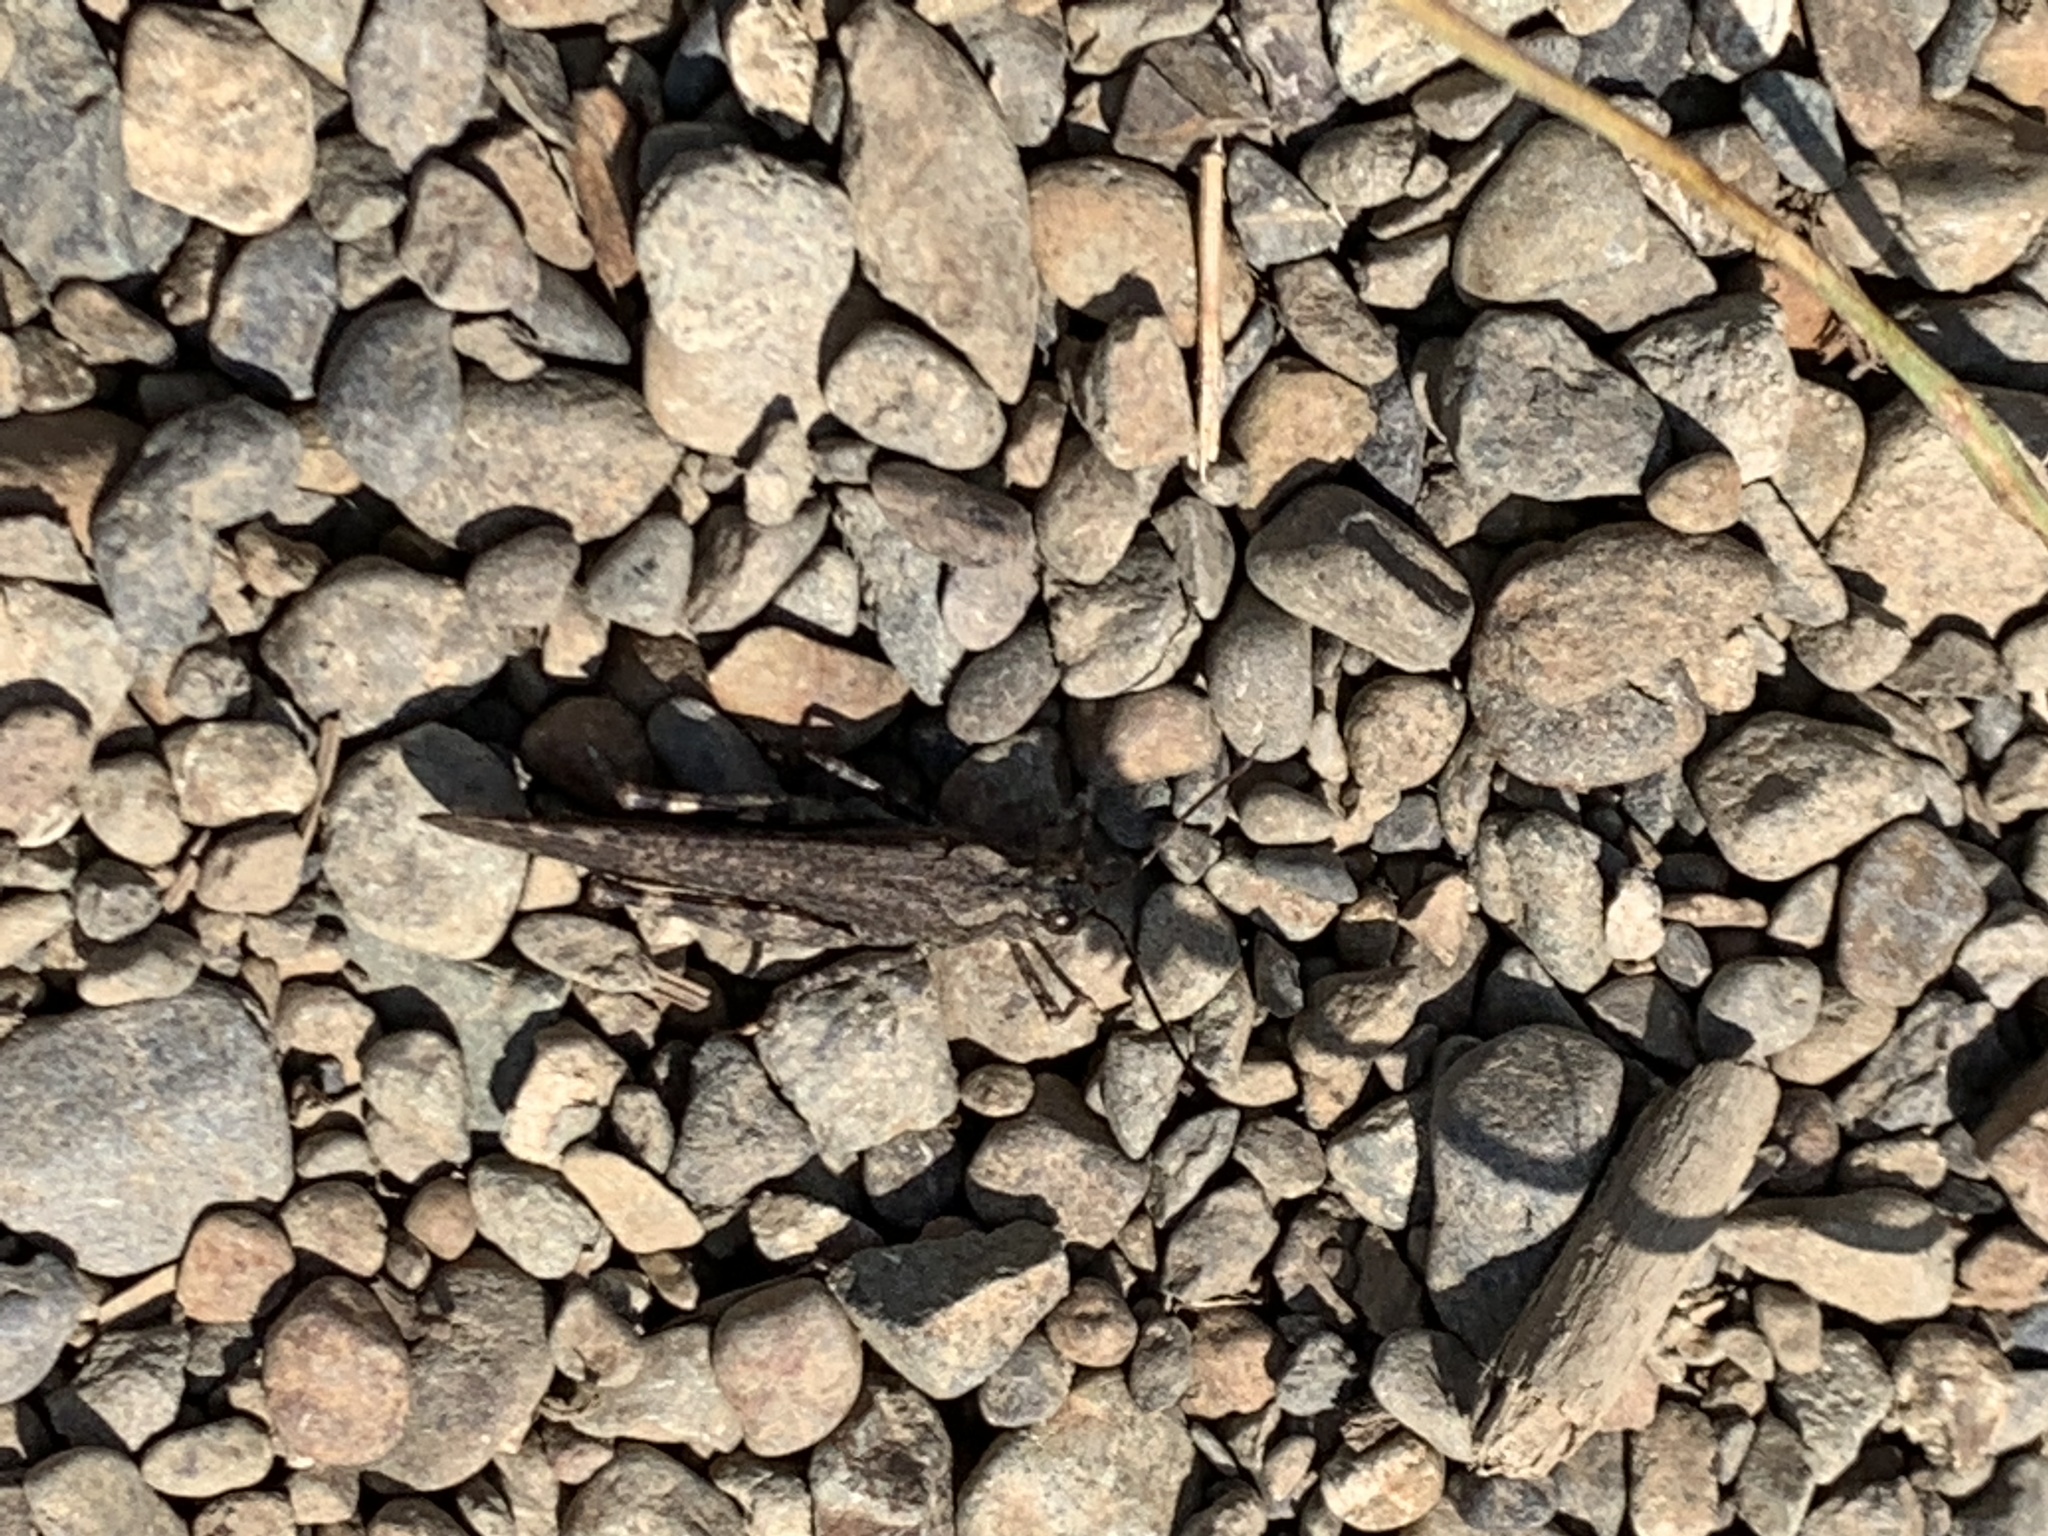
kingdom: Animalia
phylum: Arthropoda
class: Insecta
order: Orthoptera
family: Acrididae
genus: Trimerotropis
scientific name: Trimerotropis verruculata
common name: Crackling forest grasshopper
